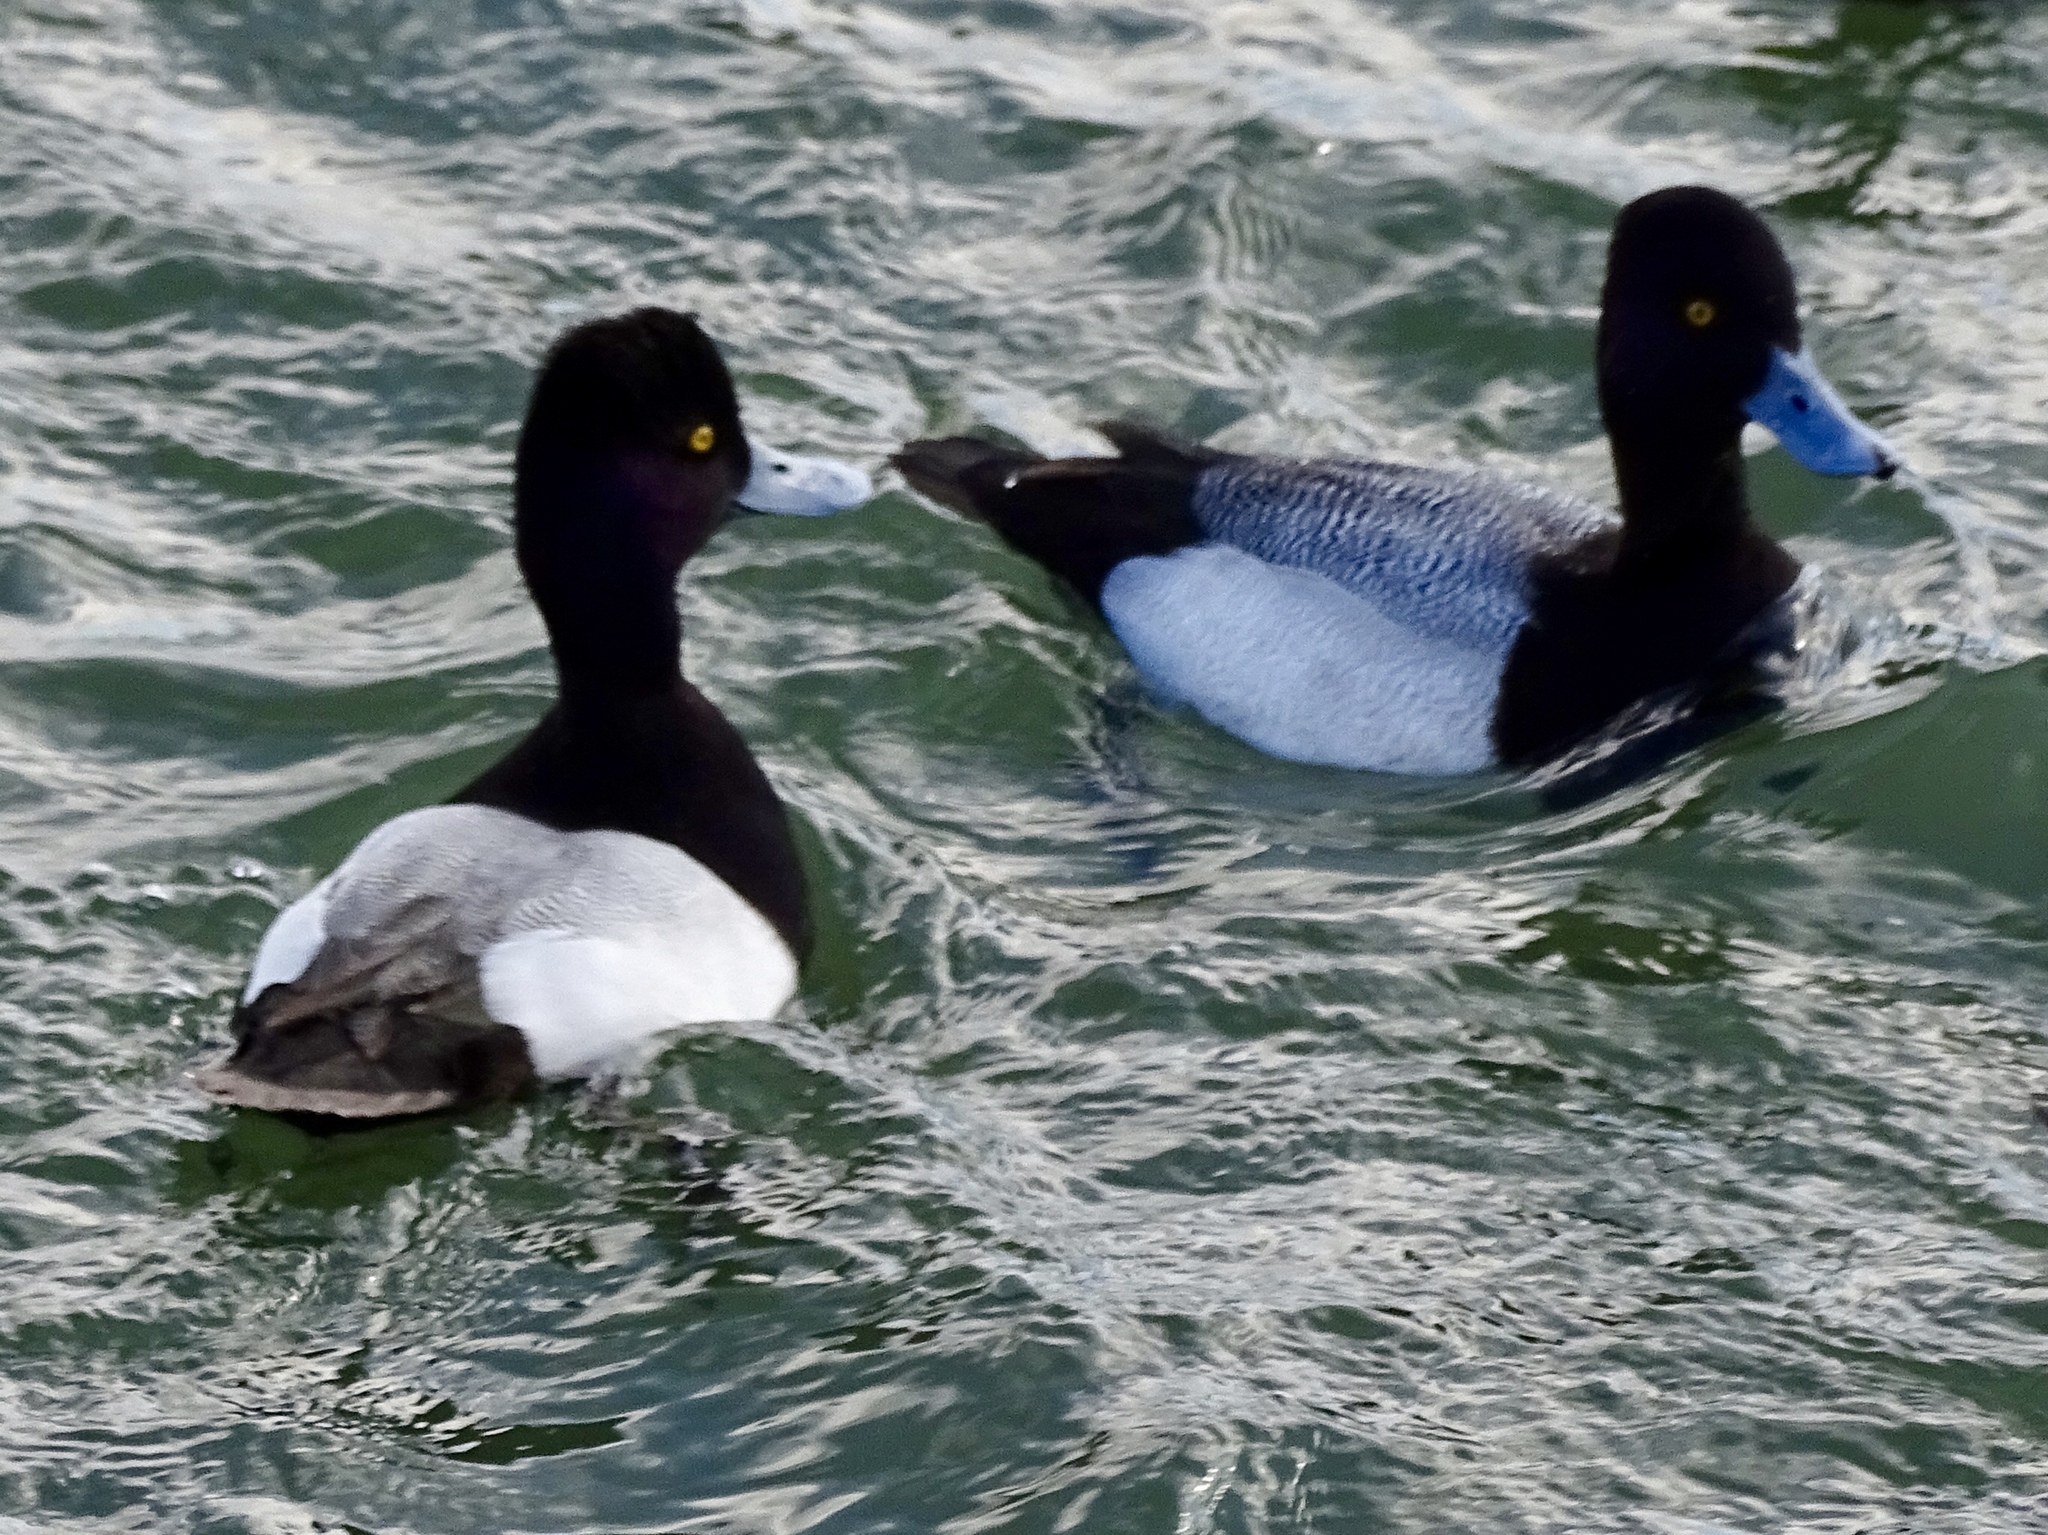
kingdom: Animalia
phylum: Chordata
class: Aves
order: Anseriformes
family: Anatidae
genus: Aythya
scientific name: Aythya affinis
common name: Lesser scaup
